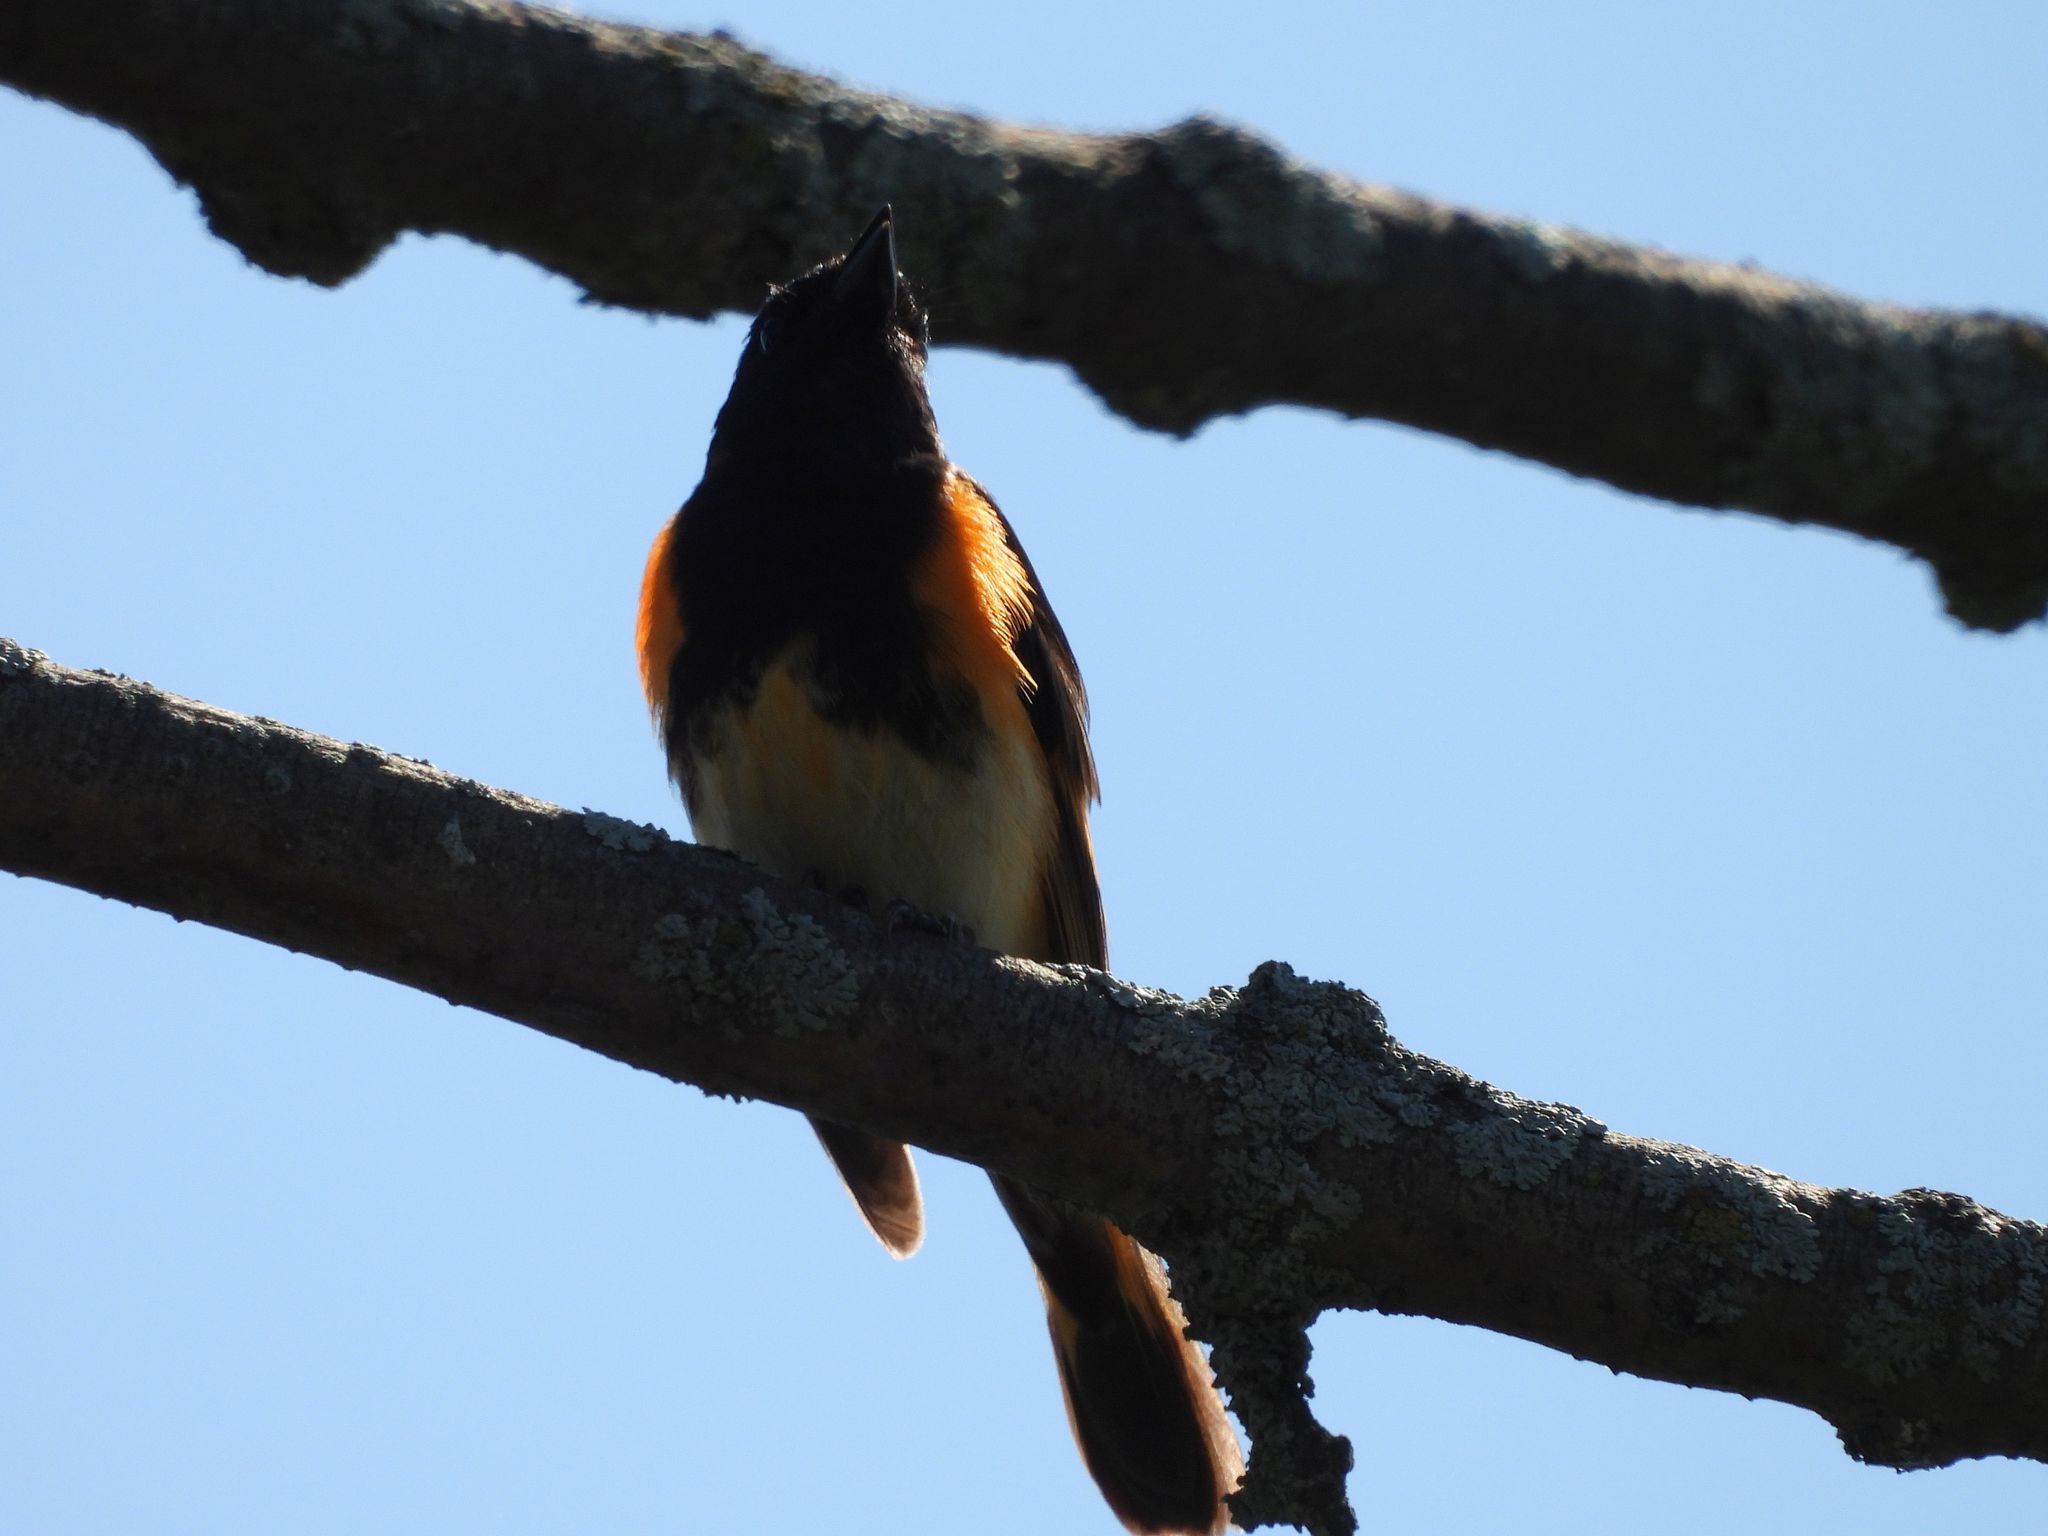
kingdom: Animalia
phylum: Chordata
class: Aves
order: Passeriformes
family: Parulidae
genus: Setophaga
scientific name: Setophaga ruticilla
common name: American redstart
